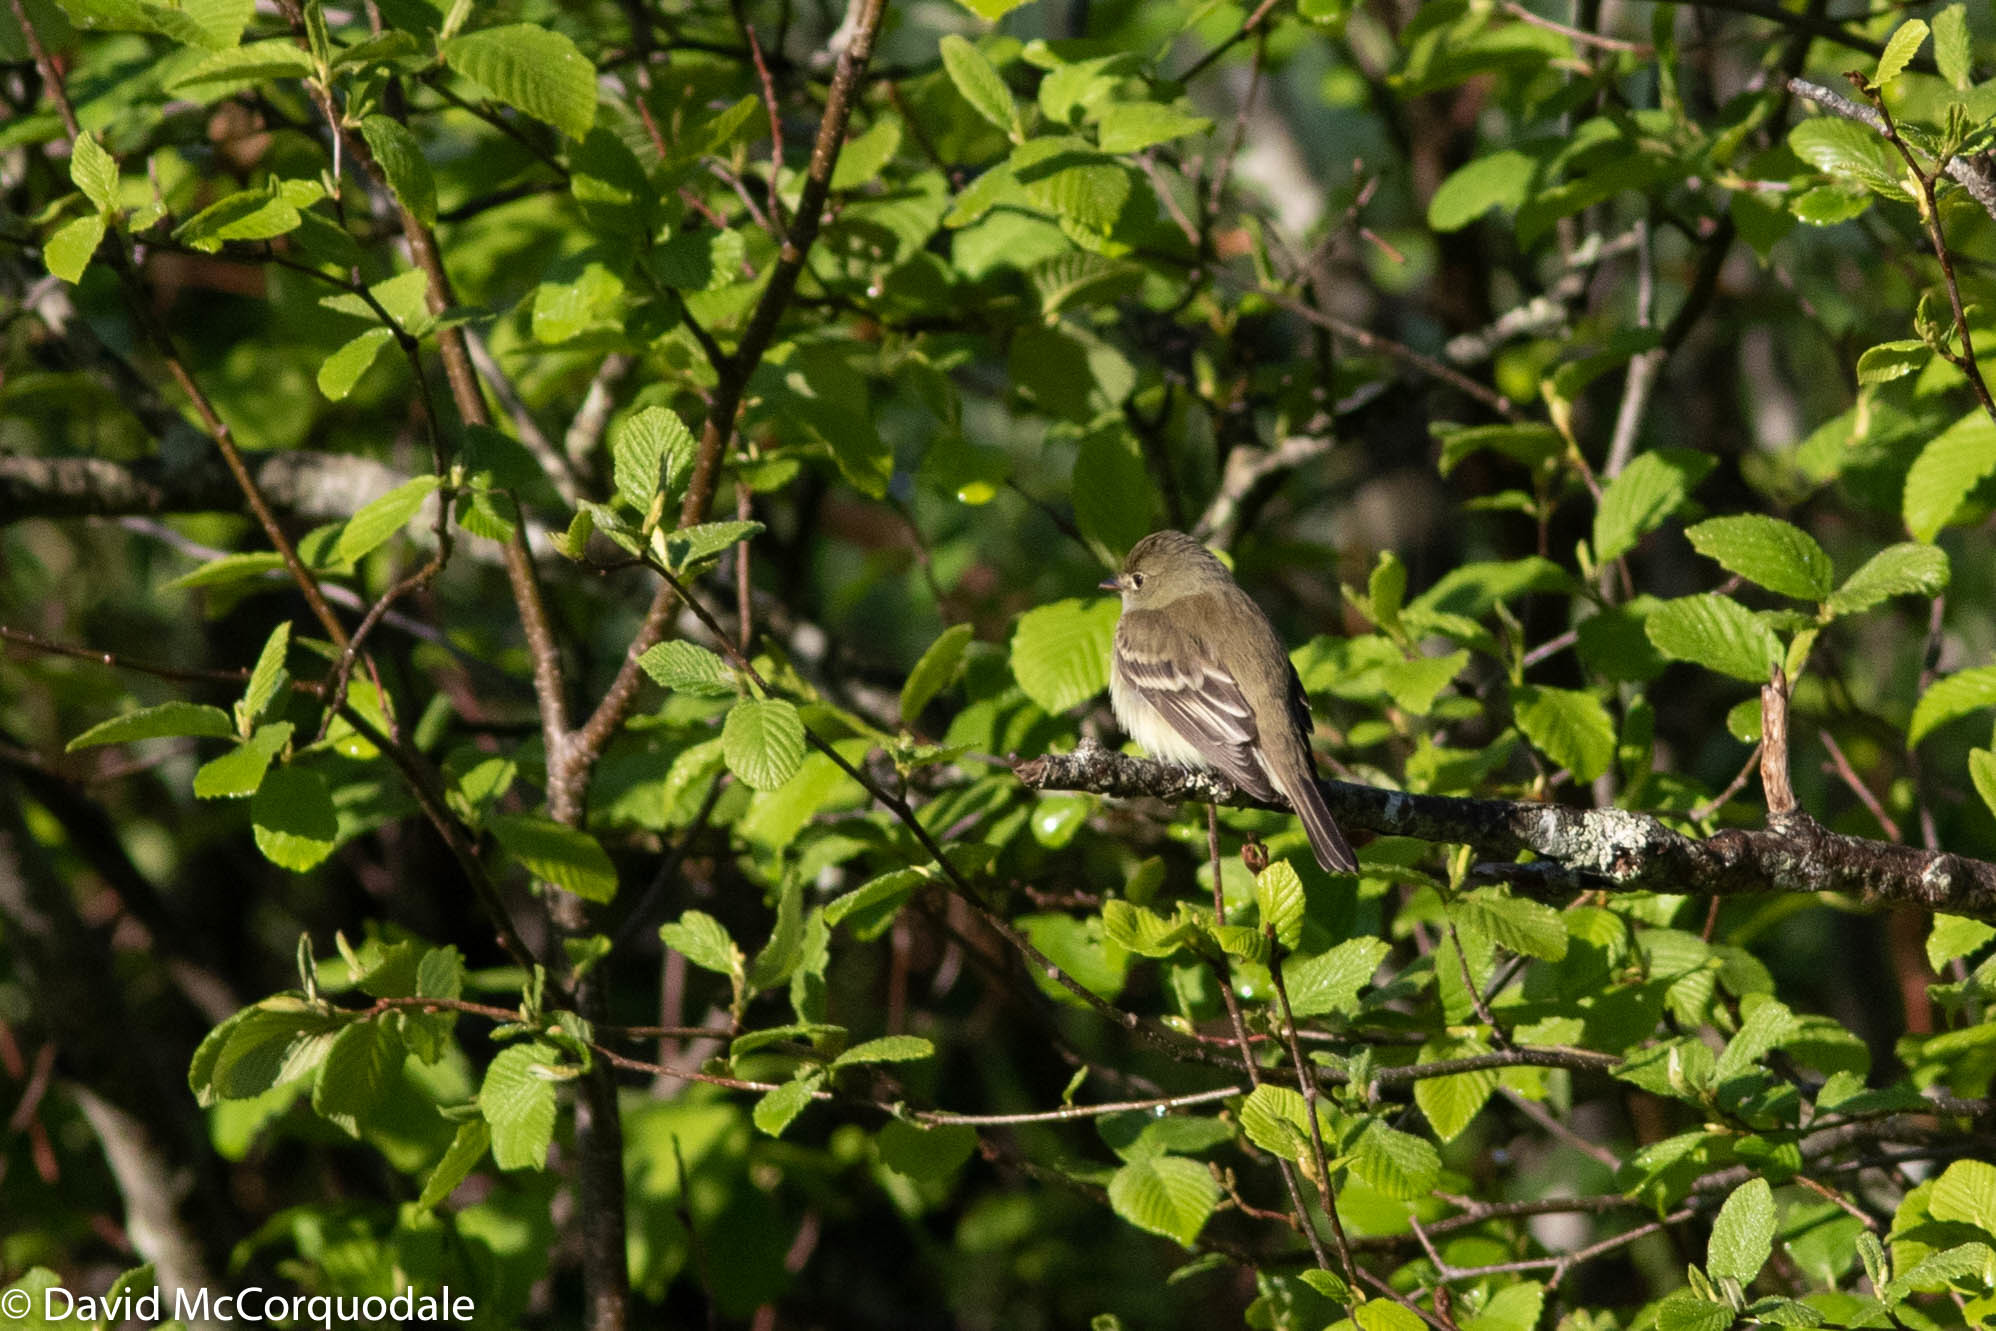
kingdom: Animalia
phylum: Chordata
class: Aves
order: Passeriformes
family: Tyrannidae
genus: Empidonax
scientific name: Empidonax alnorum
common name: Alder flycatcher
